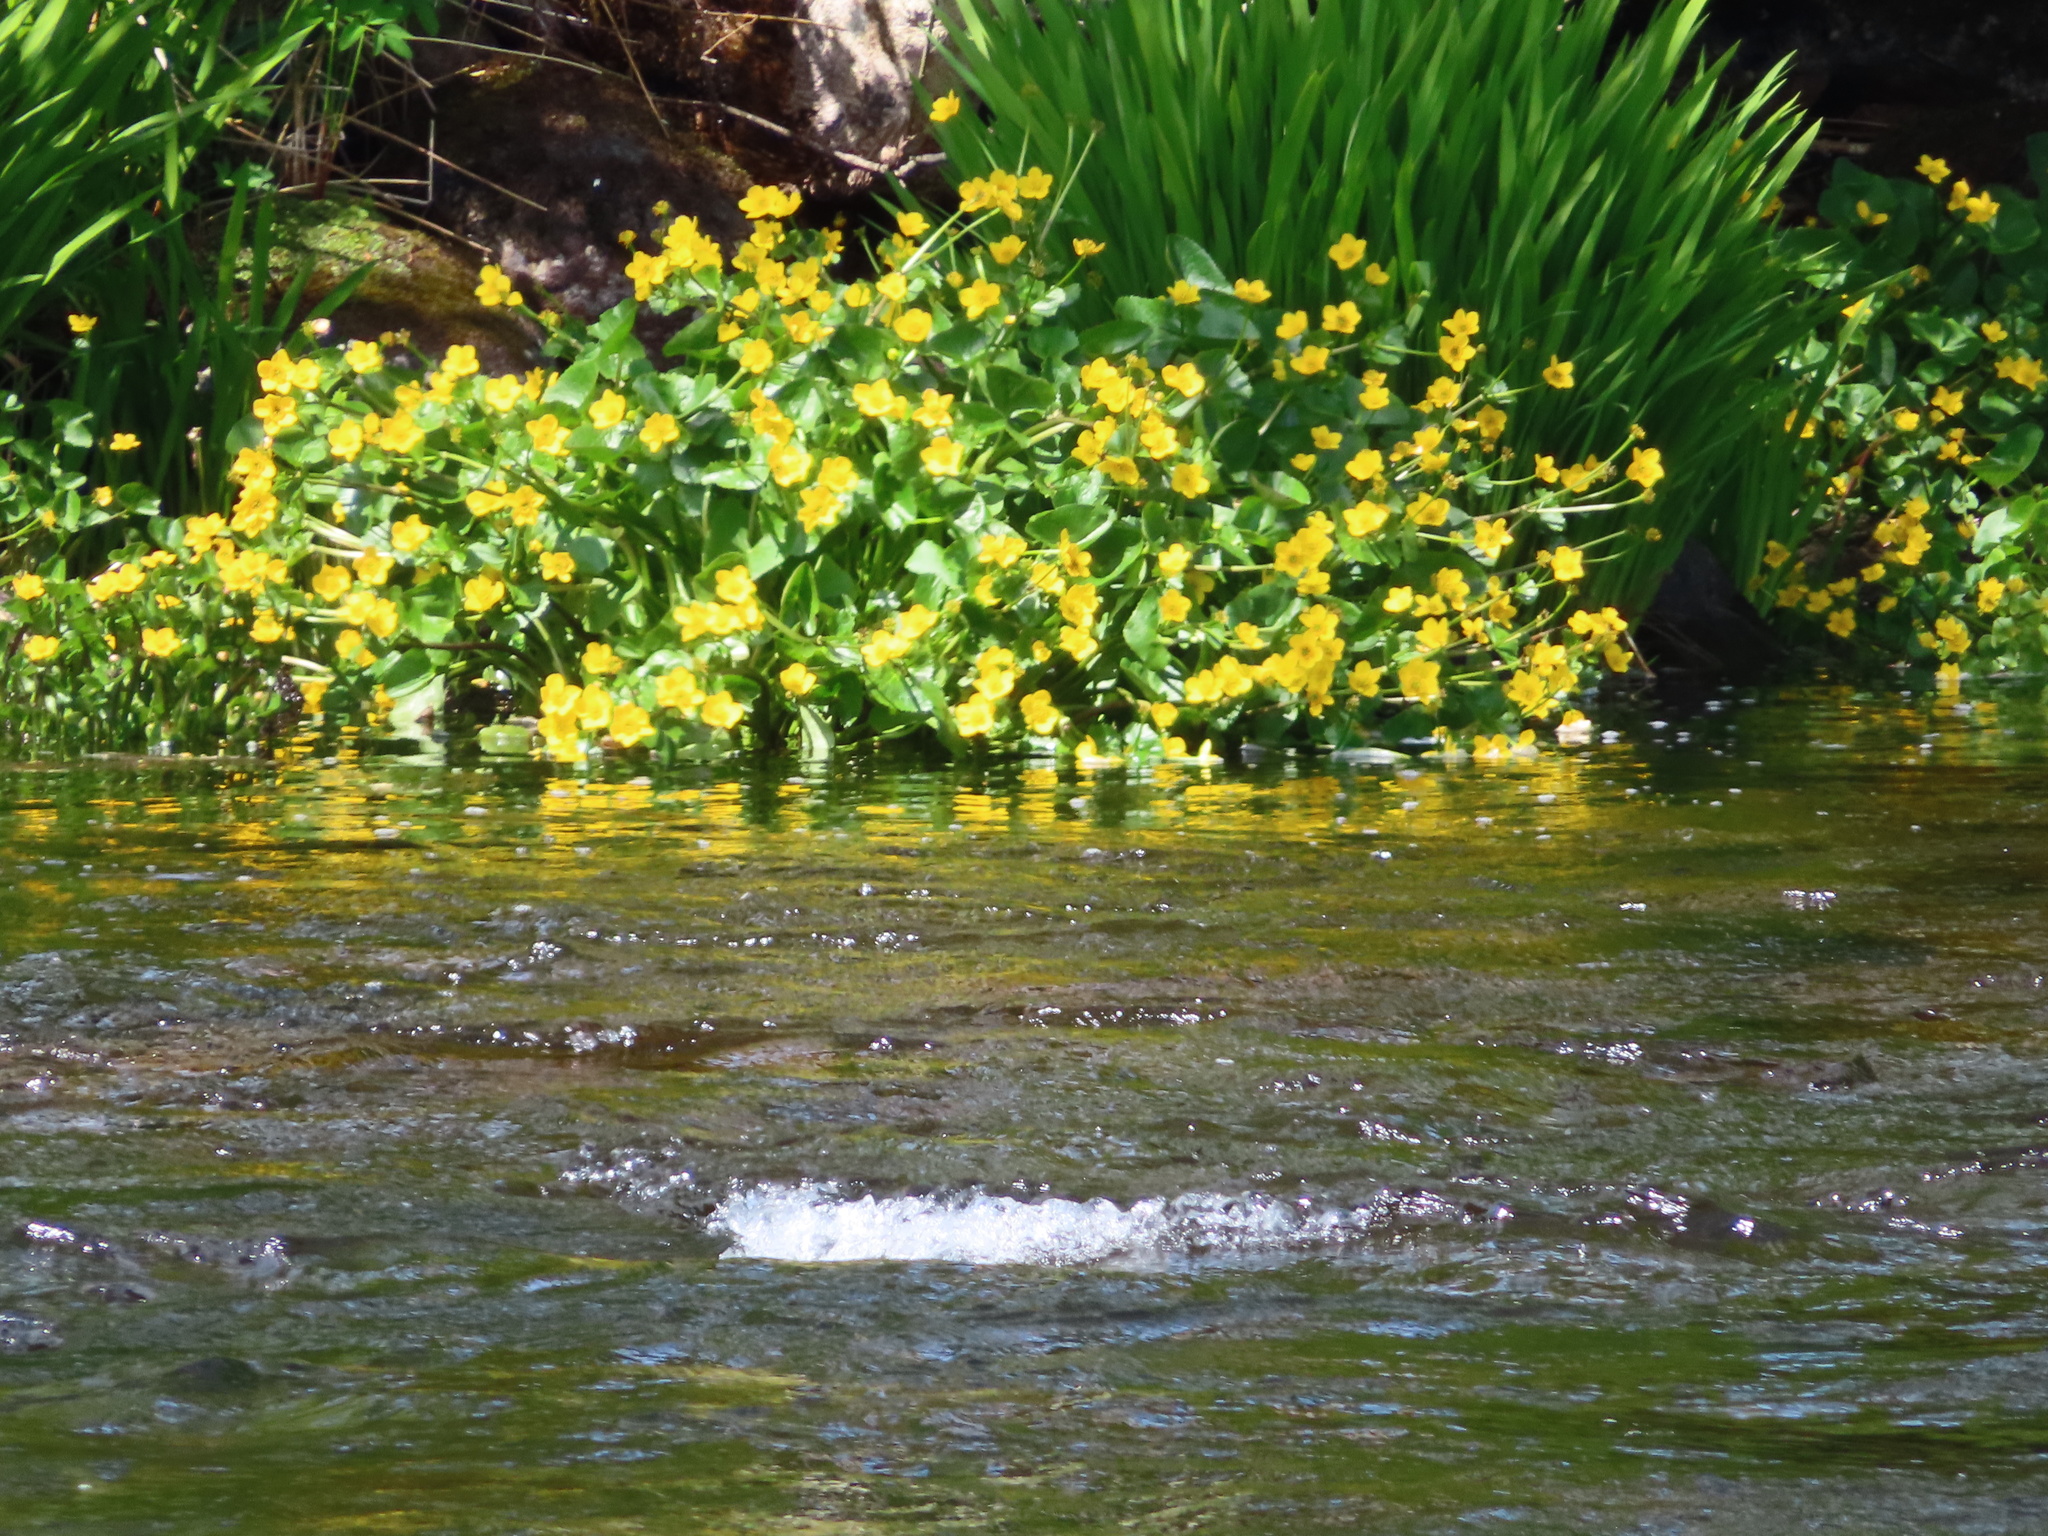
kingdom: Plantae
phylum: Tracheophyta
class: Magnoliopsida
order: Ranunculales
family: Ranunculaceae
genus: Caltha
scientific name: Caltha palustris
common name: Marsh marigold
